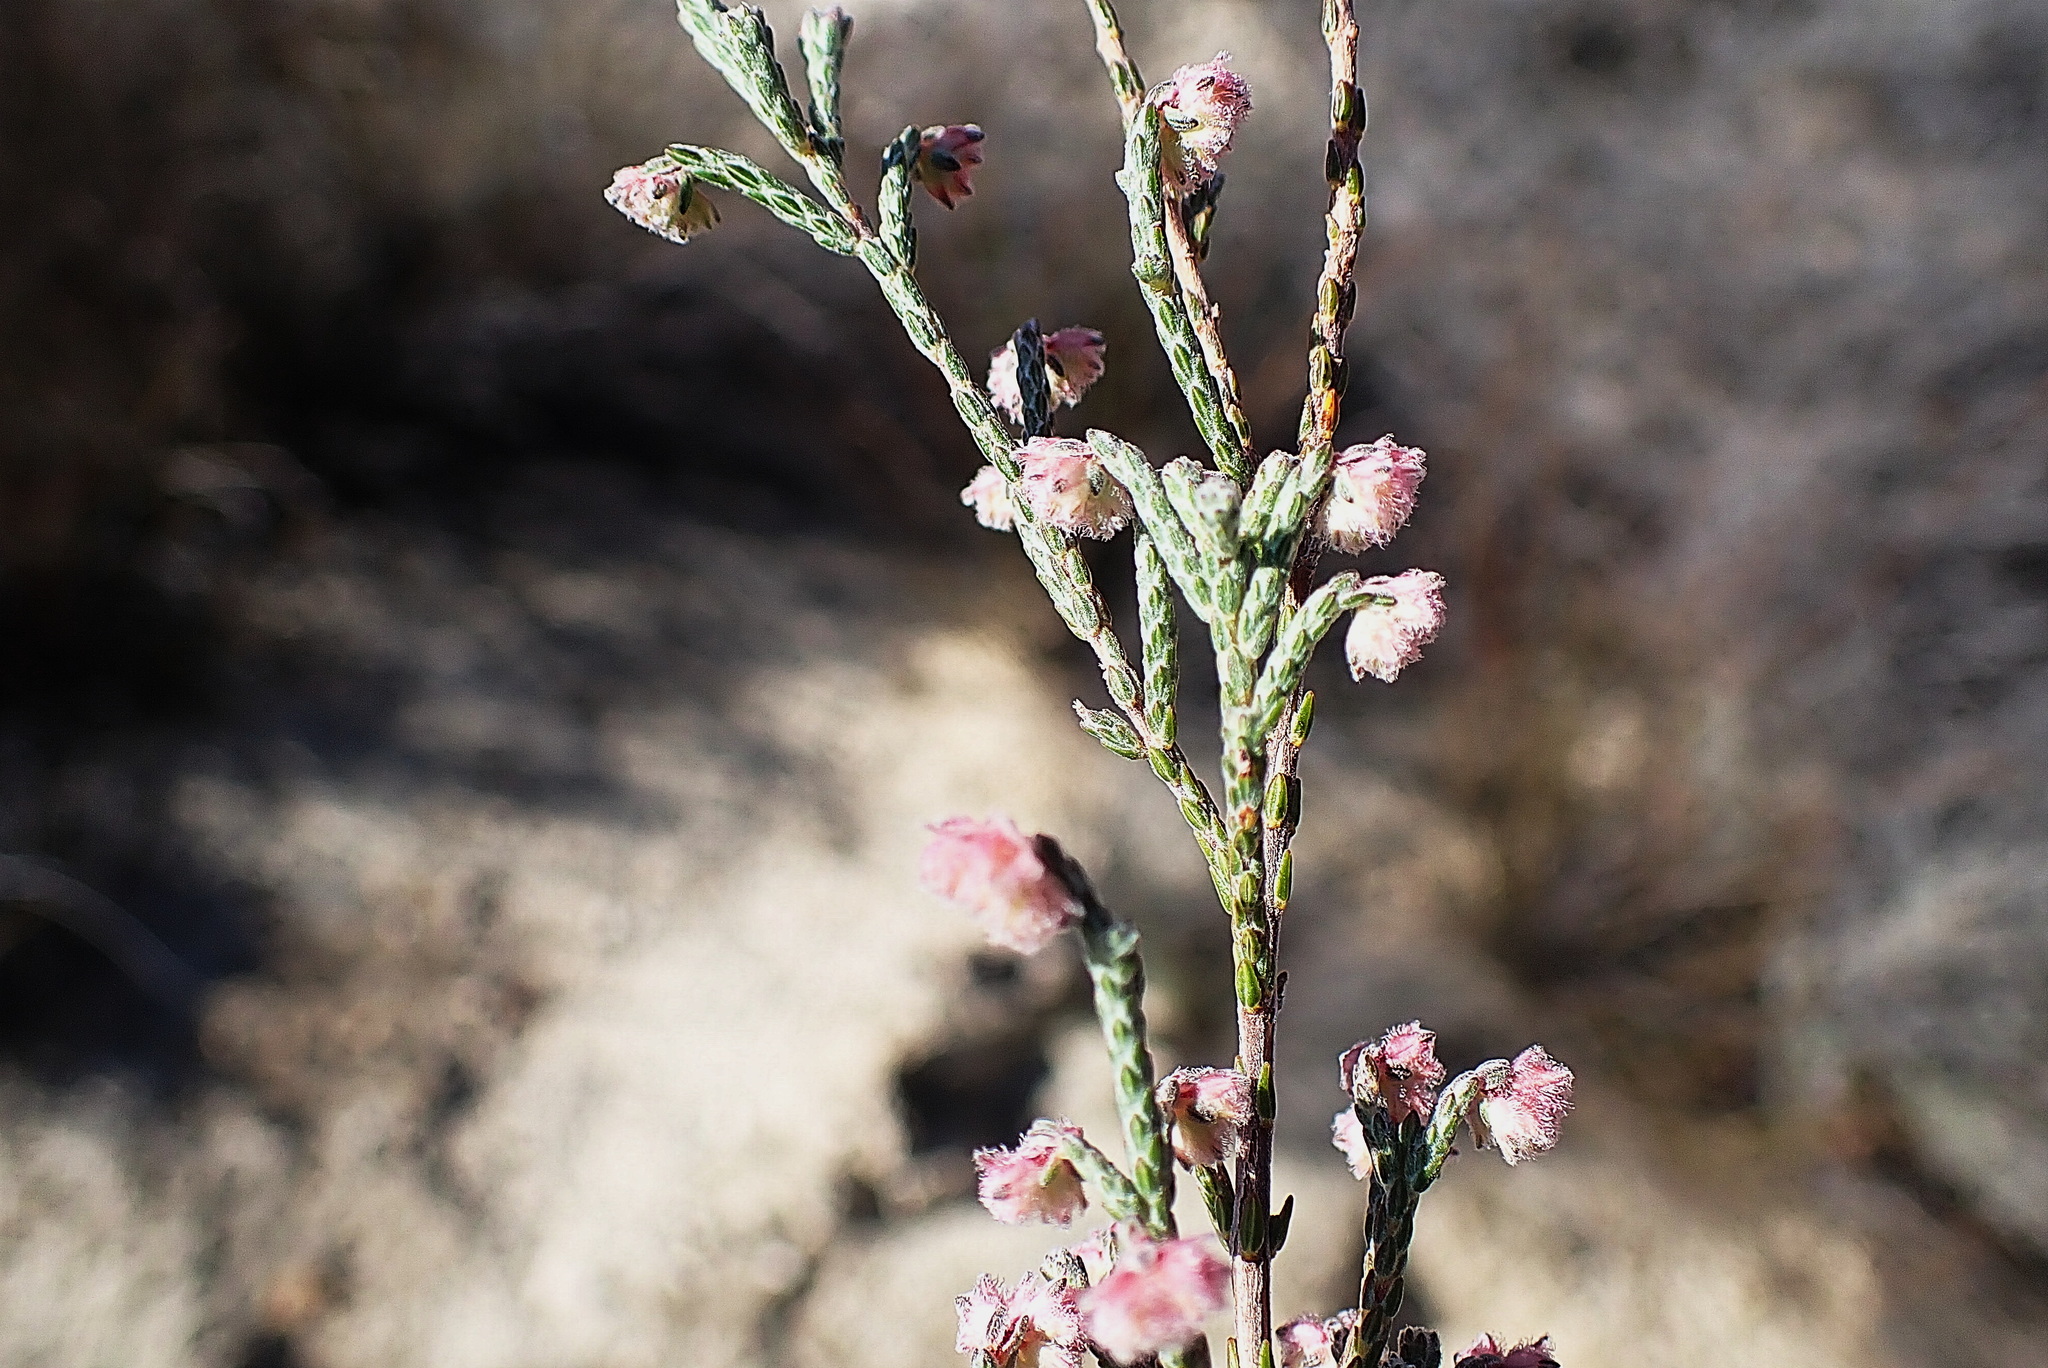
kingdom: Plantae
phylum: Tracheophyta
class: Magnoliopsida
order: Ericales
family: Ericaceae
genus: Erica
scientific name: Erica plumosa
